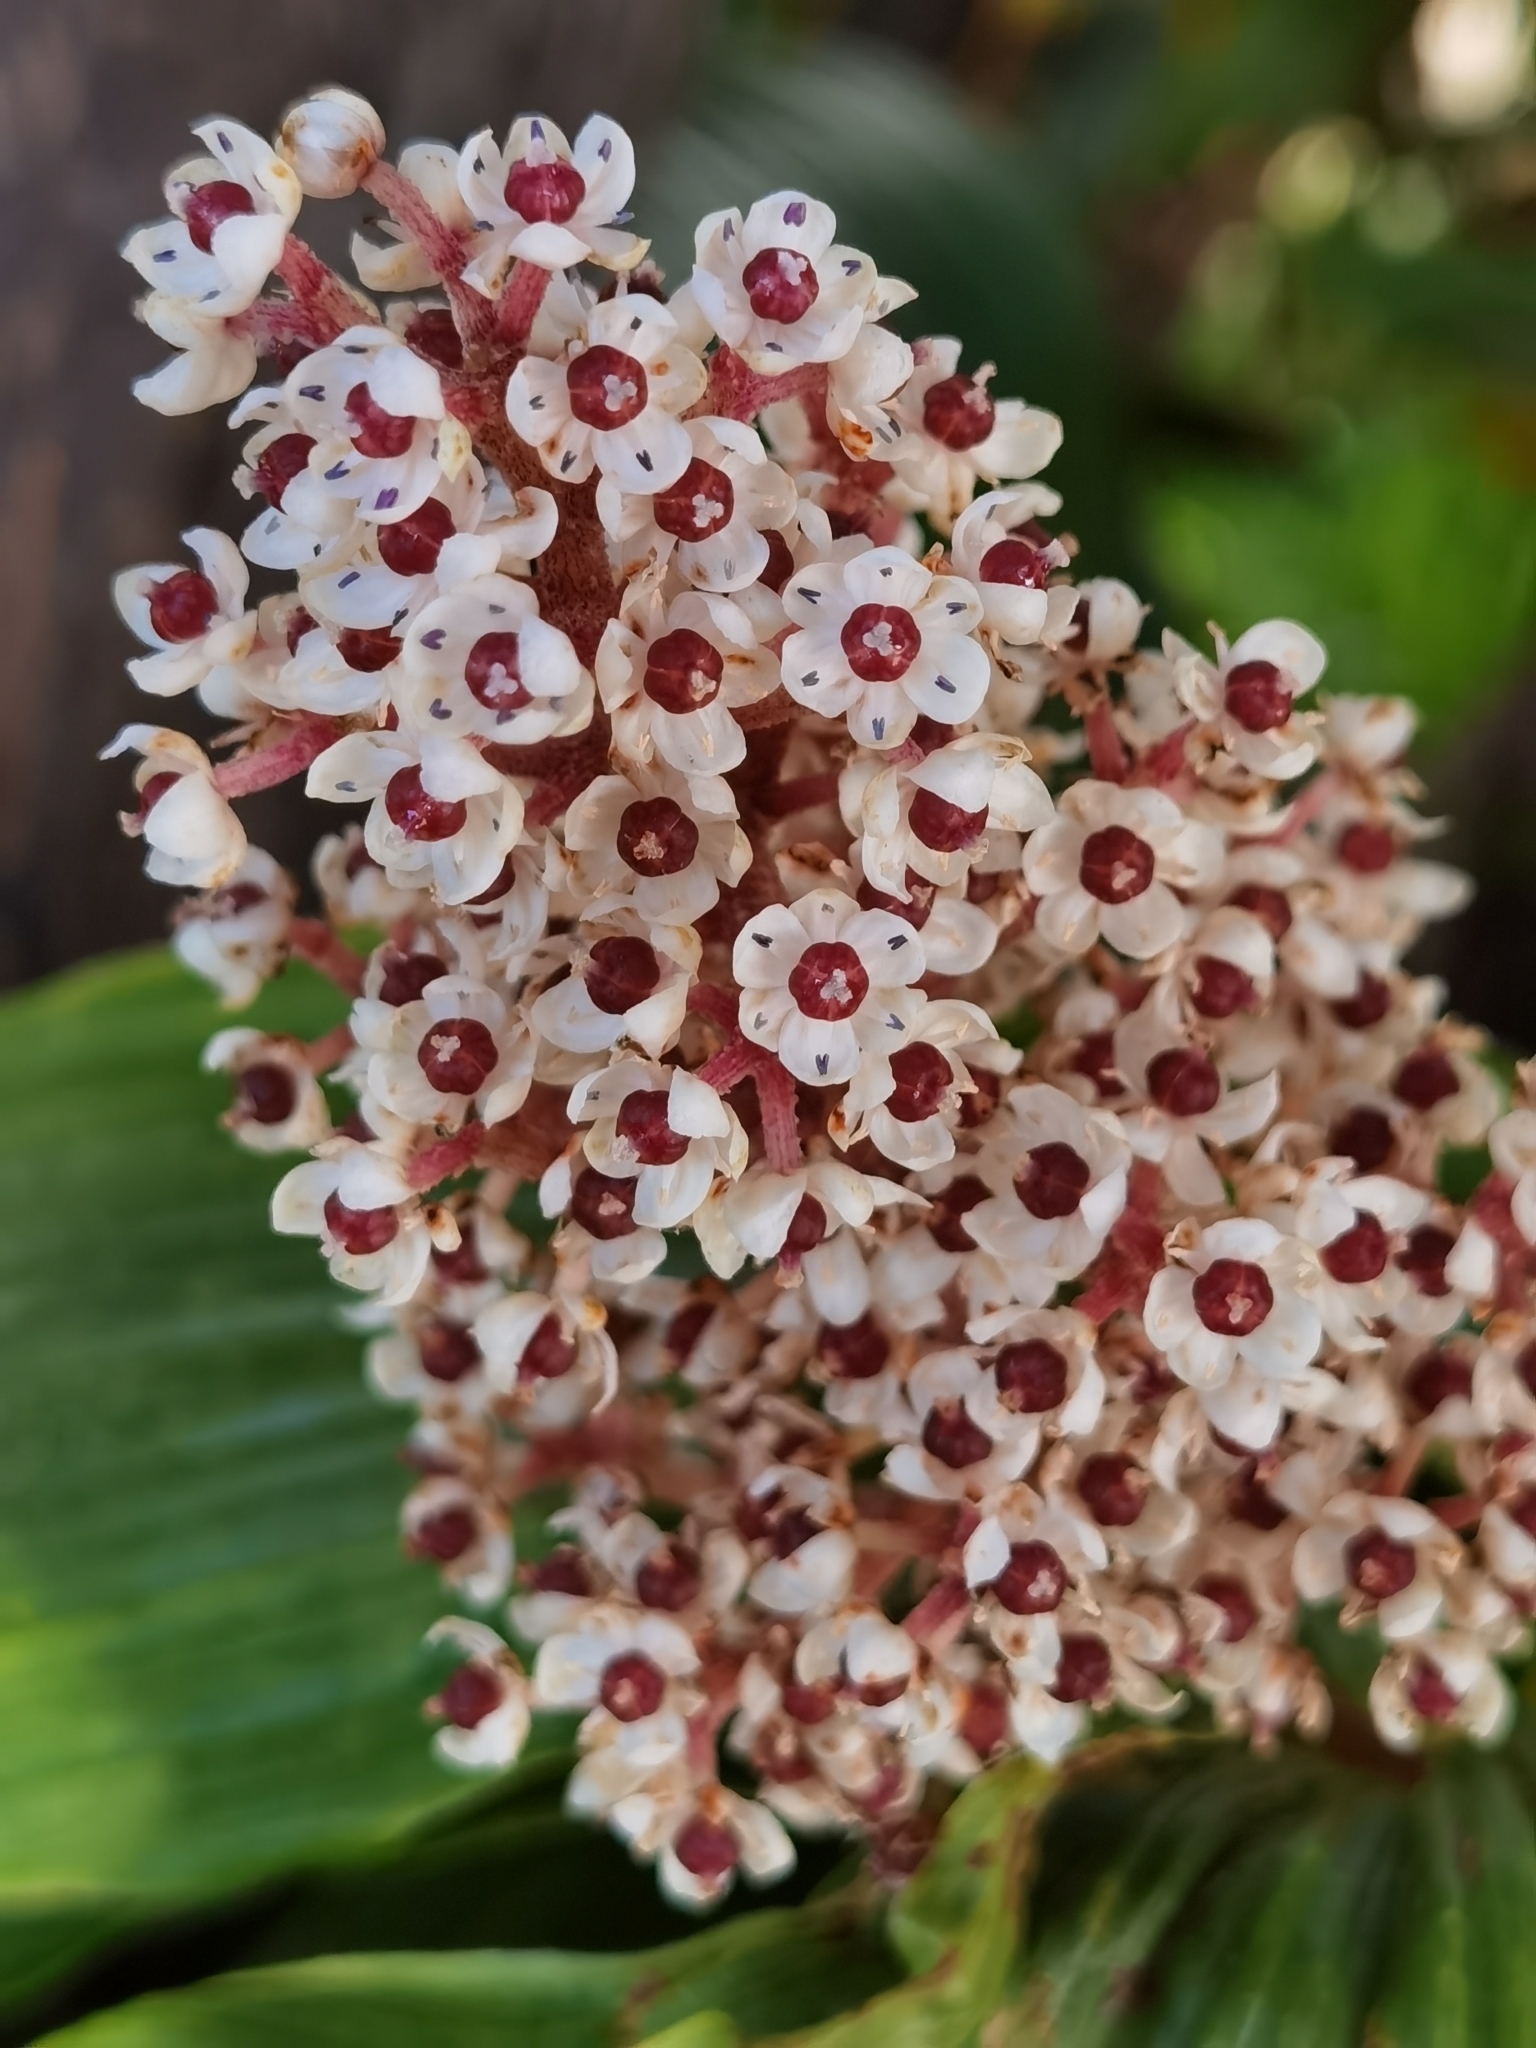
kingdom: Plantae
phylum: Tracheophyta
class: Liliopsida
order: Asparagales
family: Asparagaceae
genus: Maianthemum
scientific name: Maianthemum gigas
